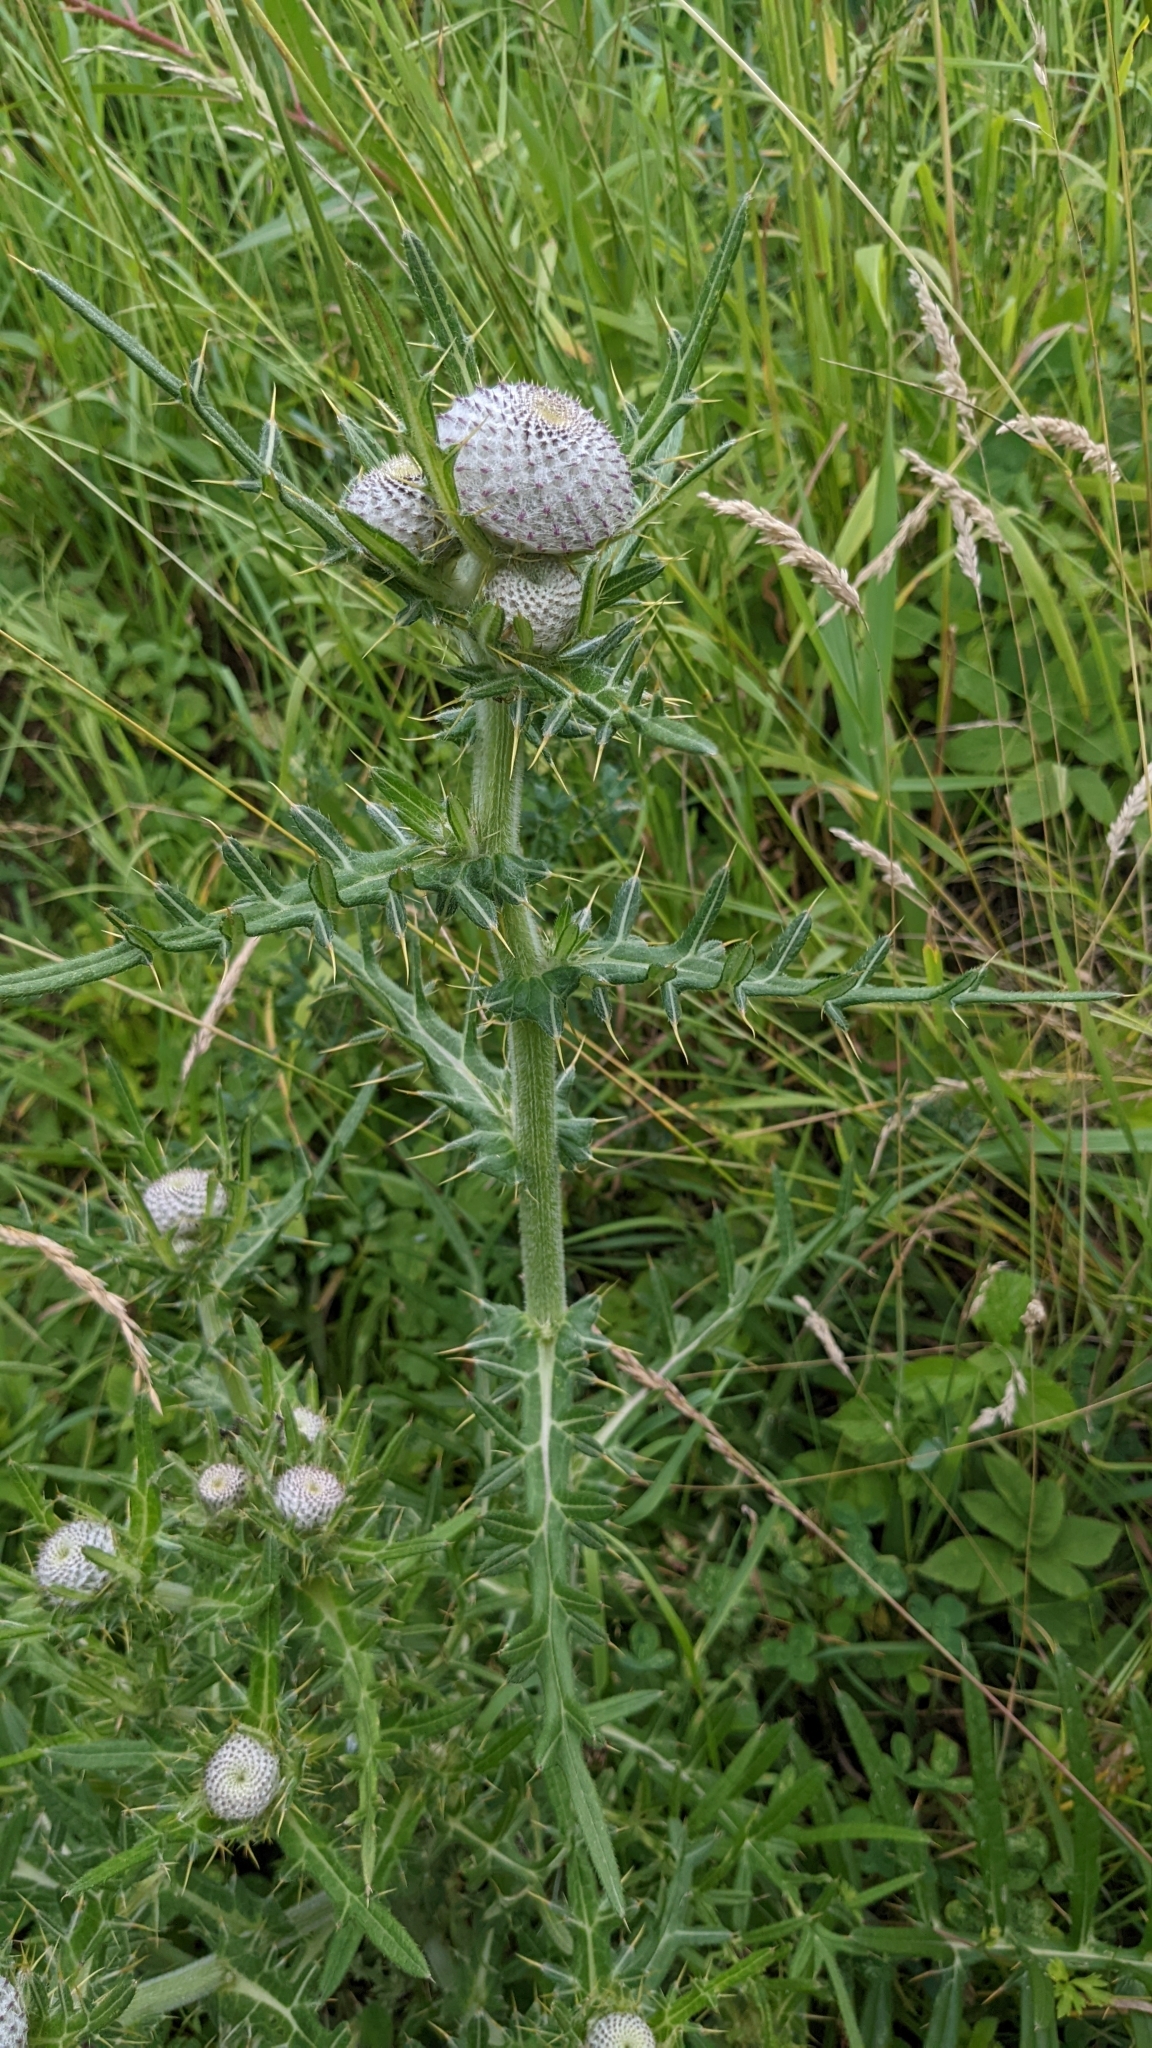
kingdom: Plantae
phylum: Tracheophyta
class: Magnoliopsida
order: Asterales
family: Asteraceae
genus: Lophiolepis
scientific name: Lophiolepis eriophora
